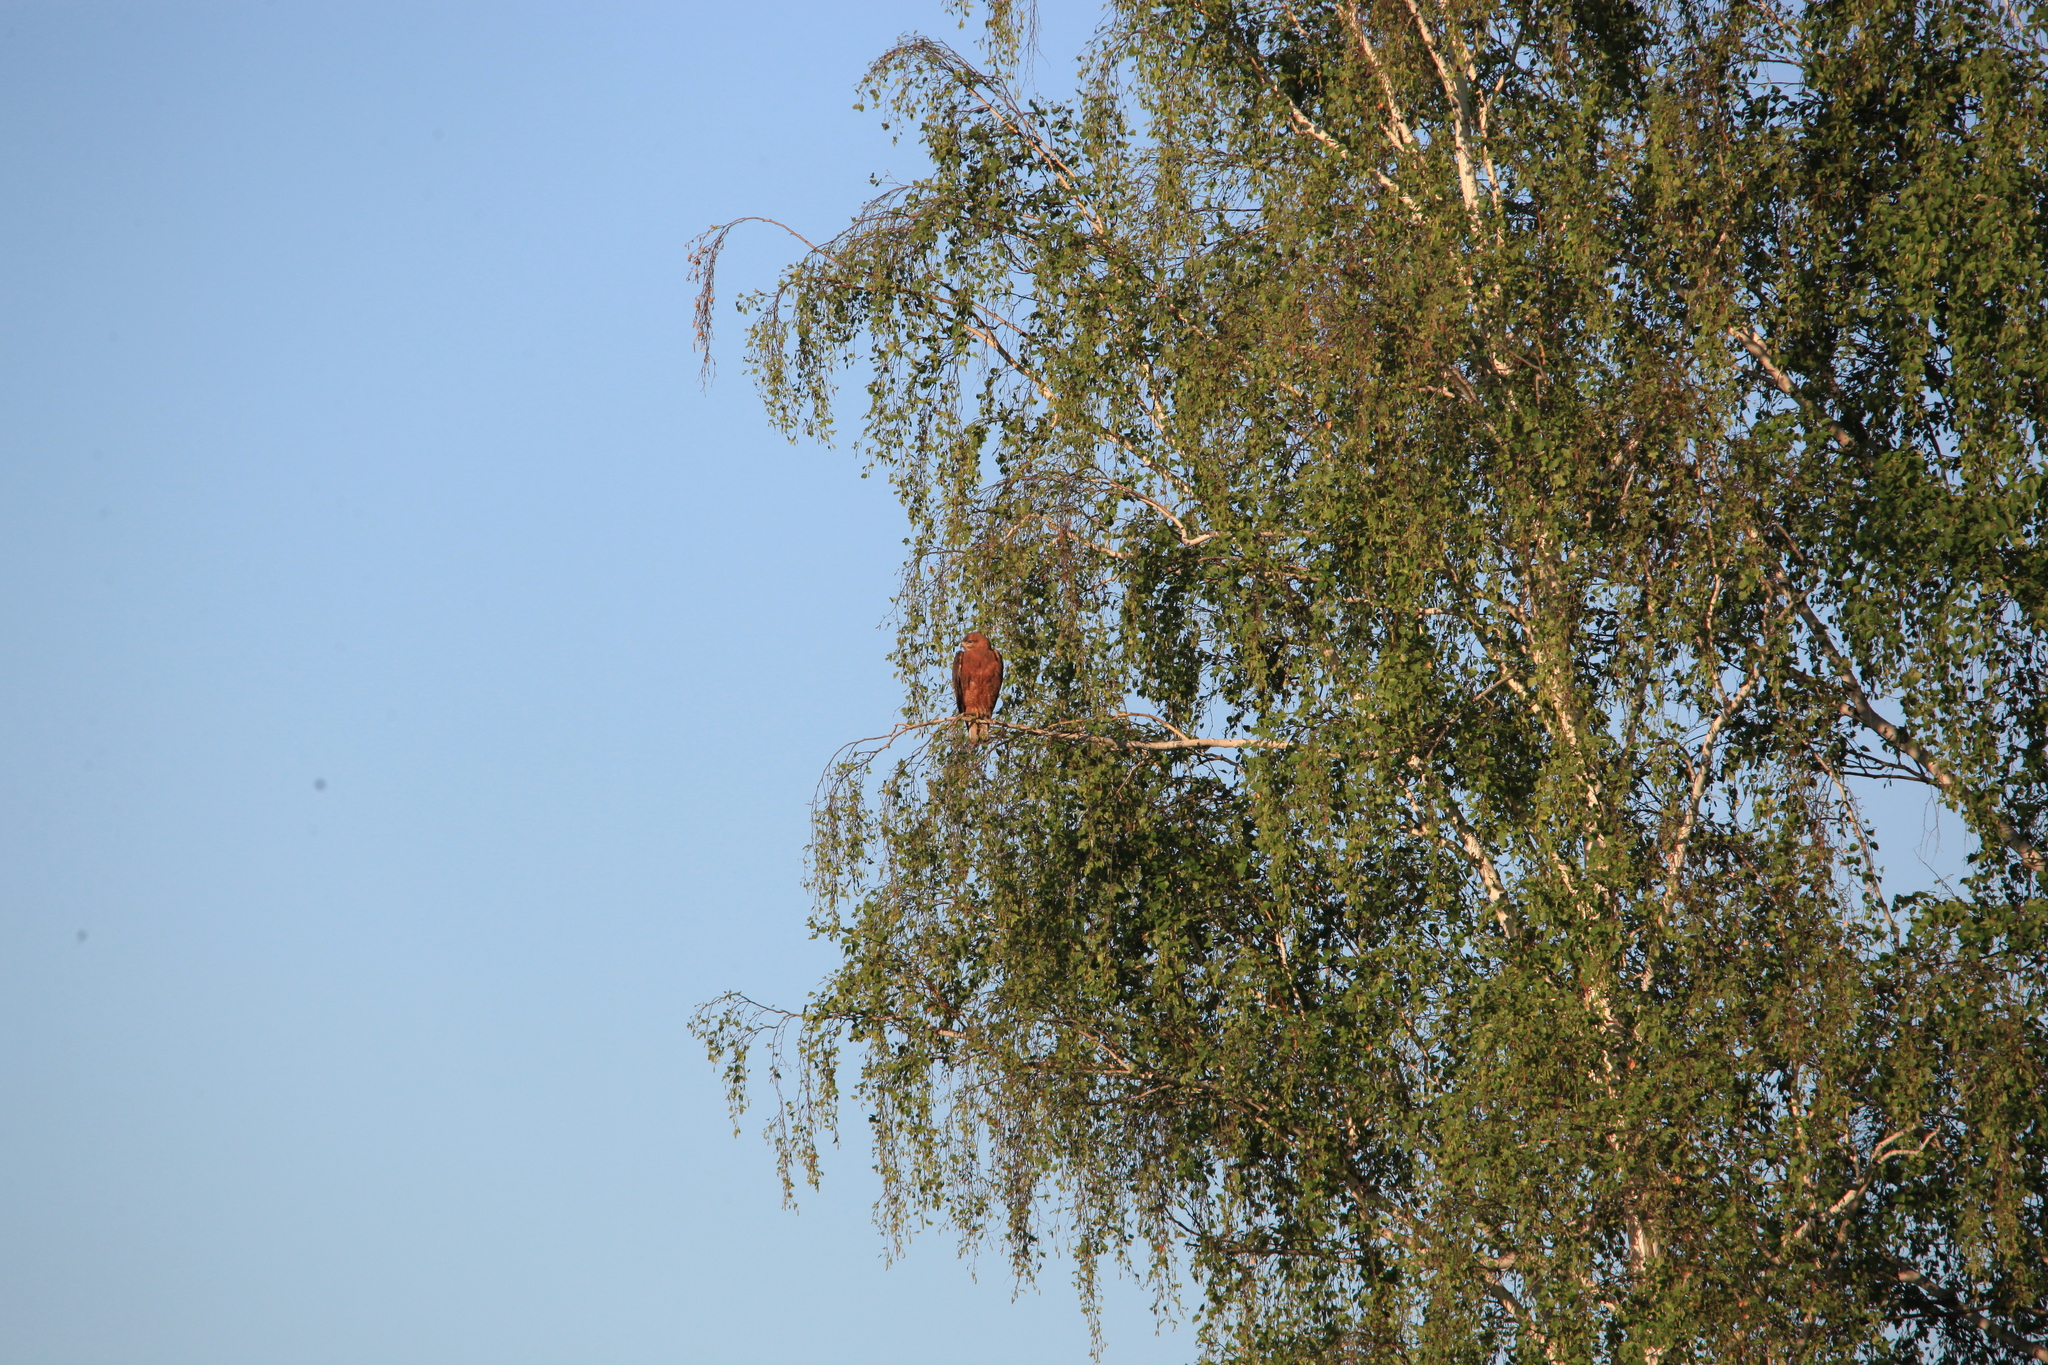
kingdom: Animalia
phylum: Chordata
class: Aves
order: Accipitriformes
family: Accipitridae
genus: Buteo
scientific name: Buteo buteo
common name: Common buzzard
